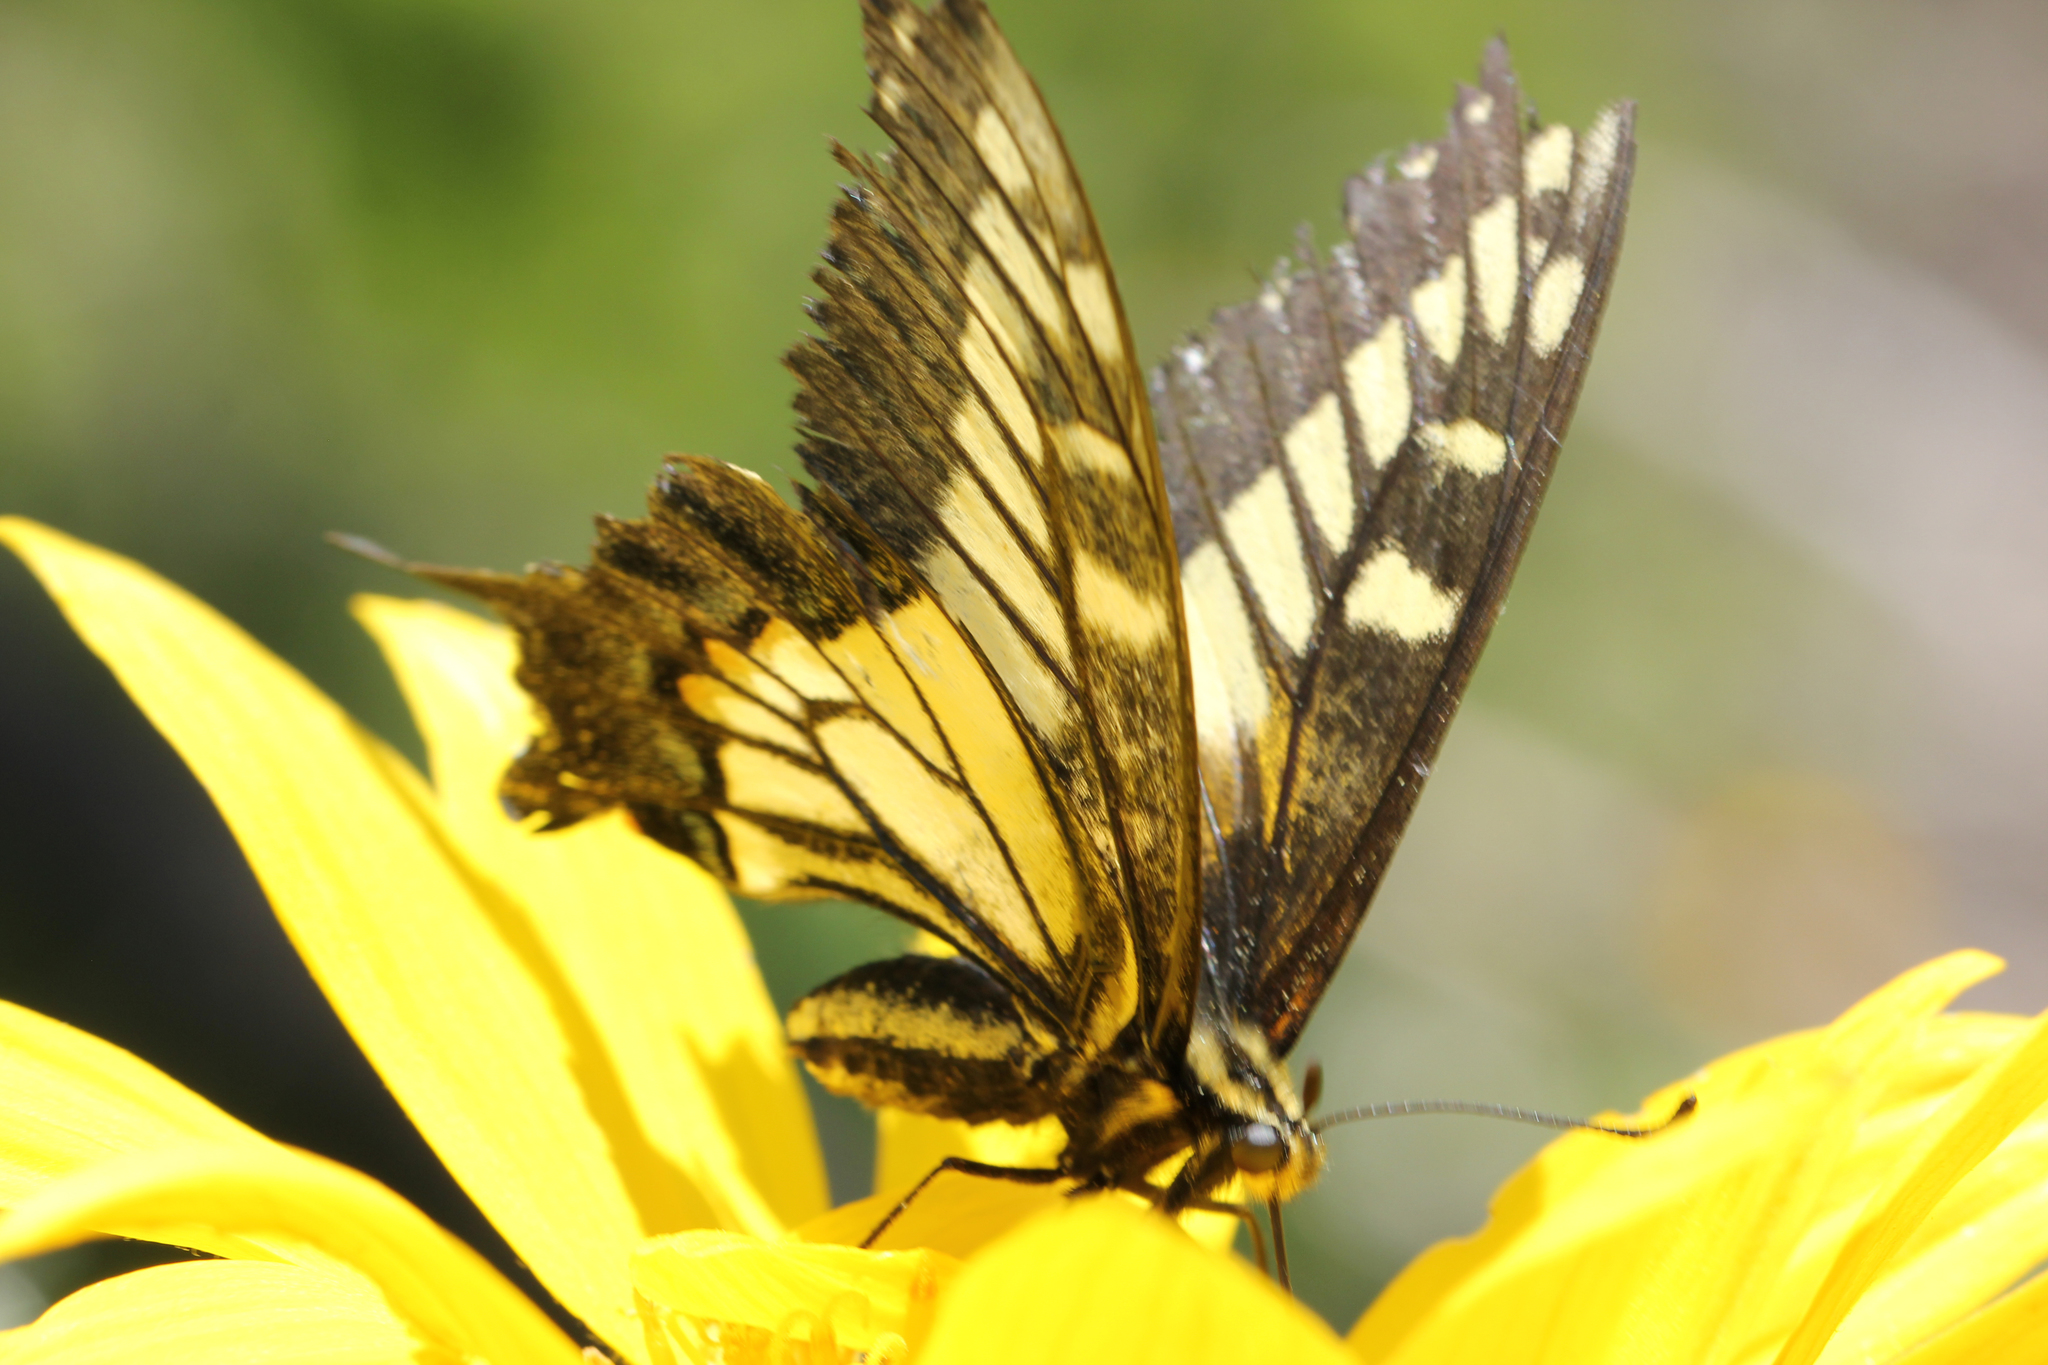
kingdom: Animalia
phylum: Arthropoda
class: Insecta
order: Lepidoptera
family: Papilionidae
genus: Papilio
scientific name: Papilio zelicaon
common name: Anise swallowtail
